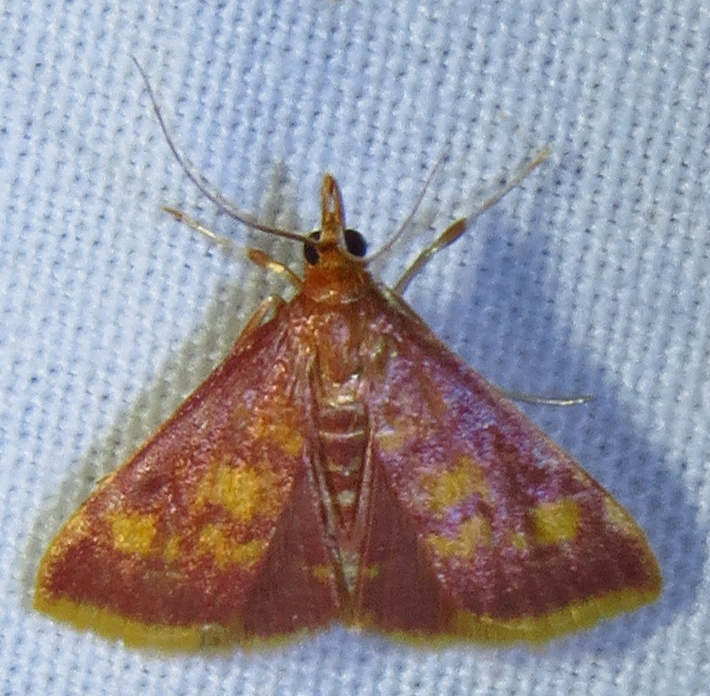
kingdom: Animalia
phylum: Arthropoda
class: Insecta
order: Lepidoptera
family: Crambidae
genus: Pyrausta
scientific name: Pyrausta acrionalis
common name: Mint-loving pyrausta moth
